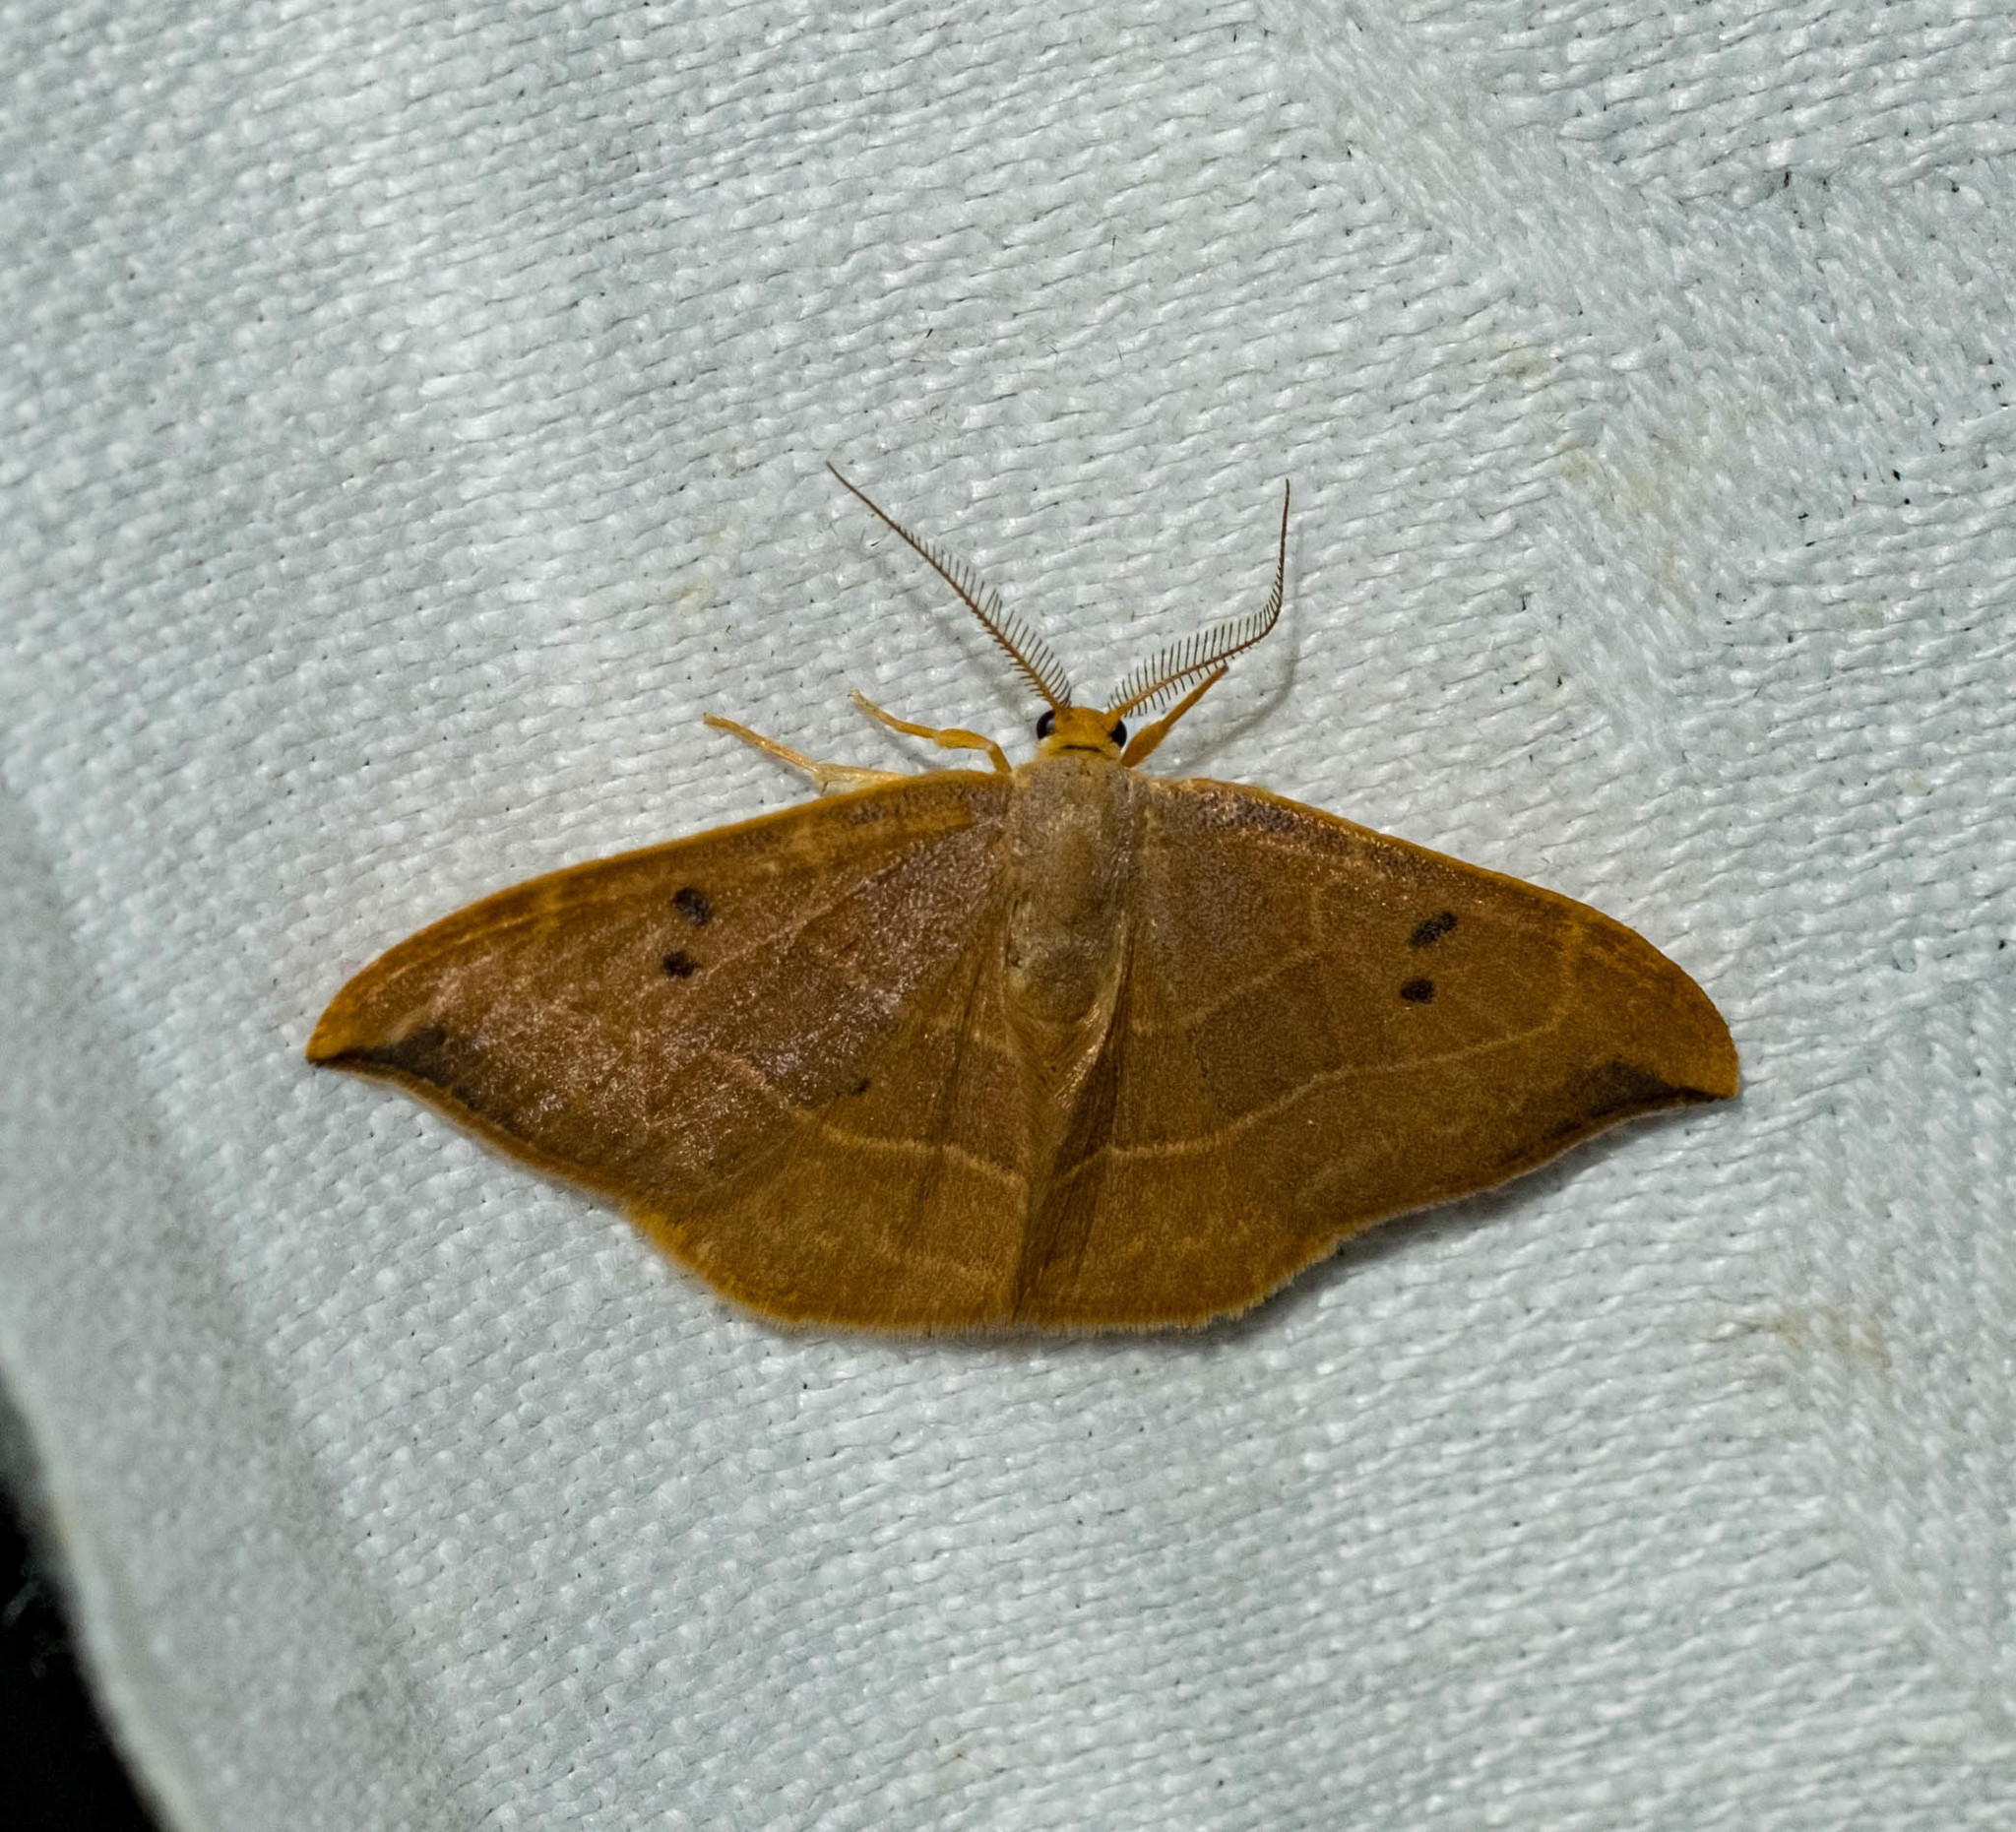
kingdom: Animalia
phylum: Arthropoda
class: Insecta
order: Lepidoptera
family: Drepanidae
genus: Watsonalla
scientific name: Watsonalla binaria
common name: Oak hook-tip
